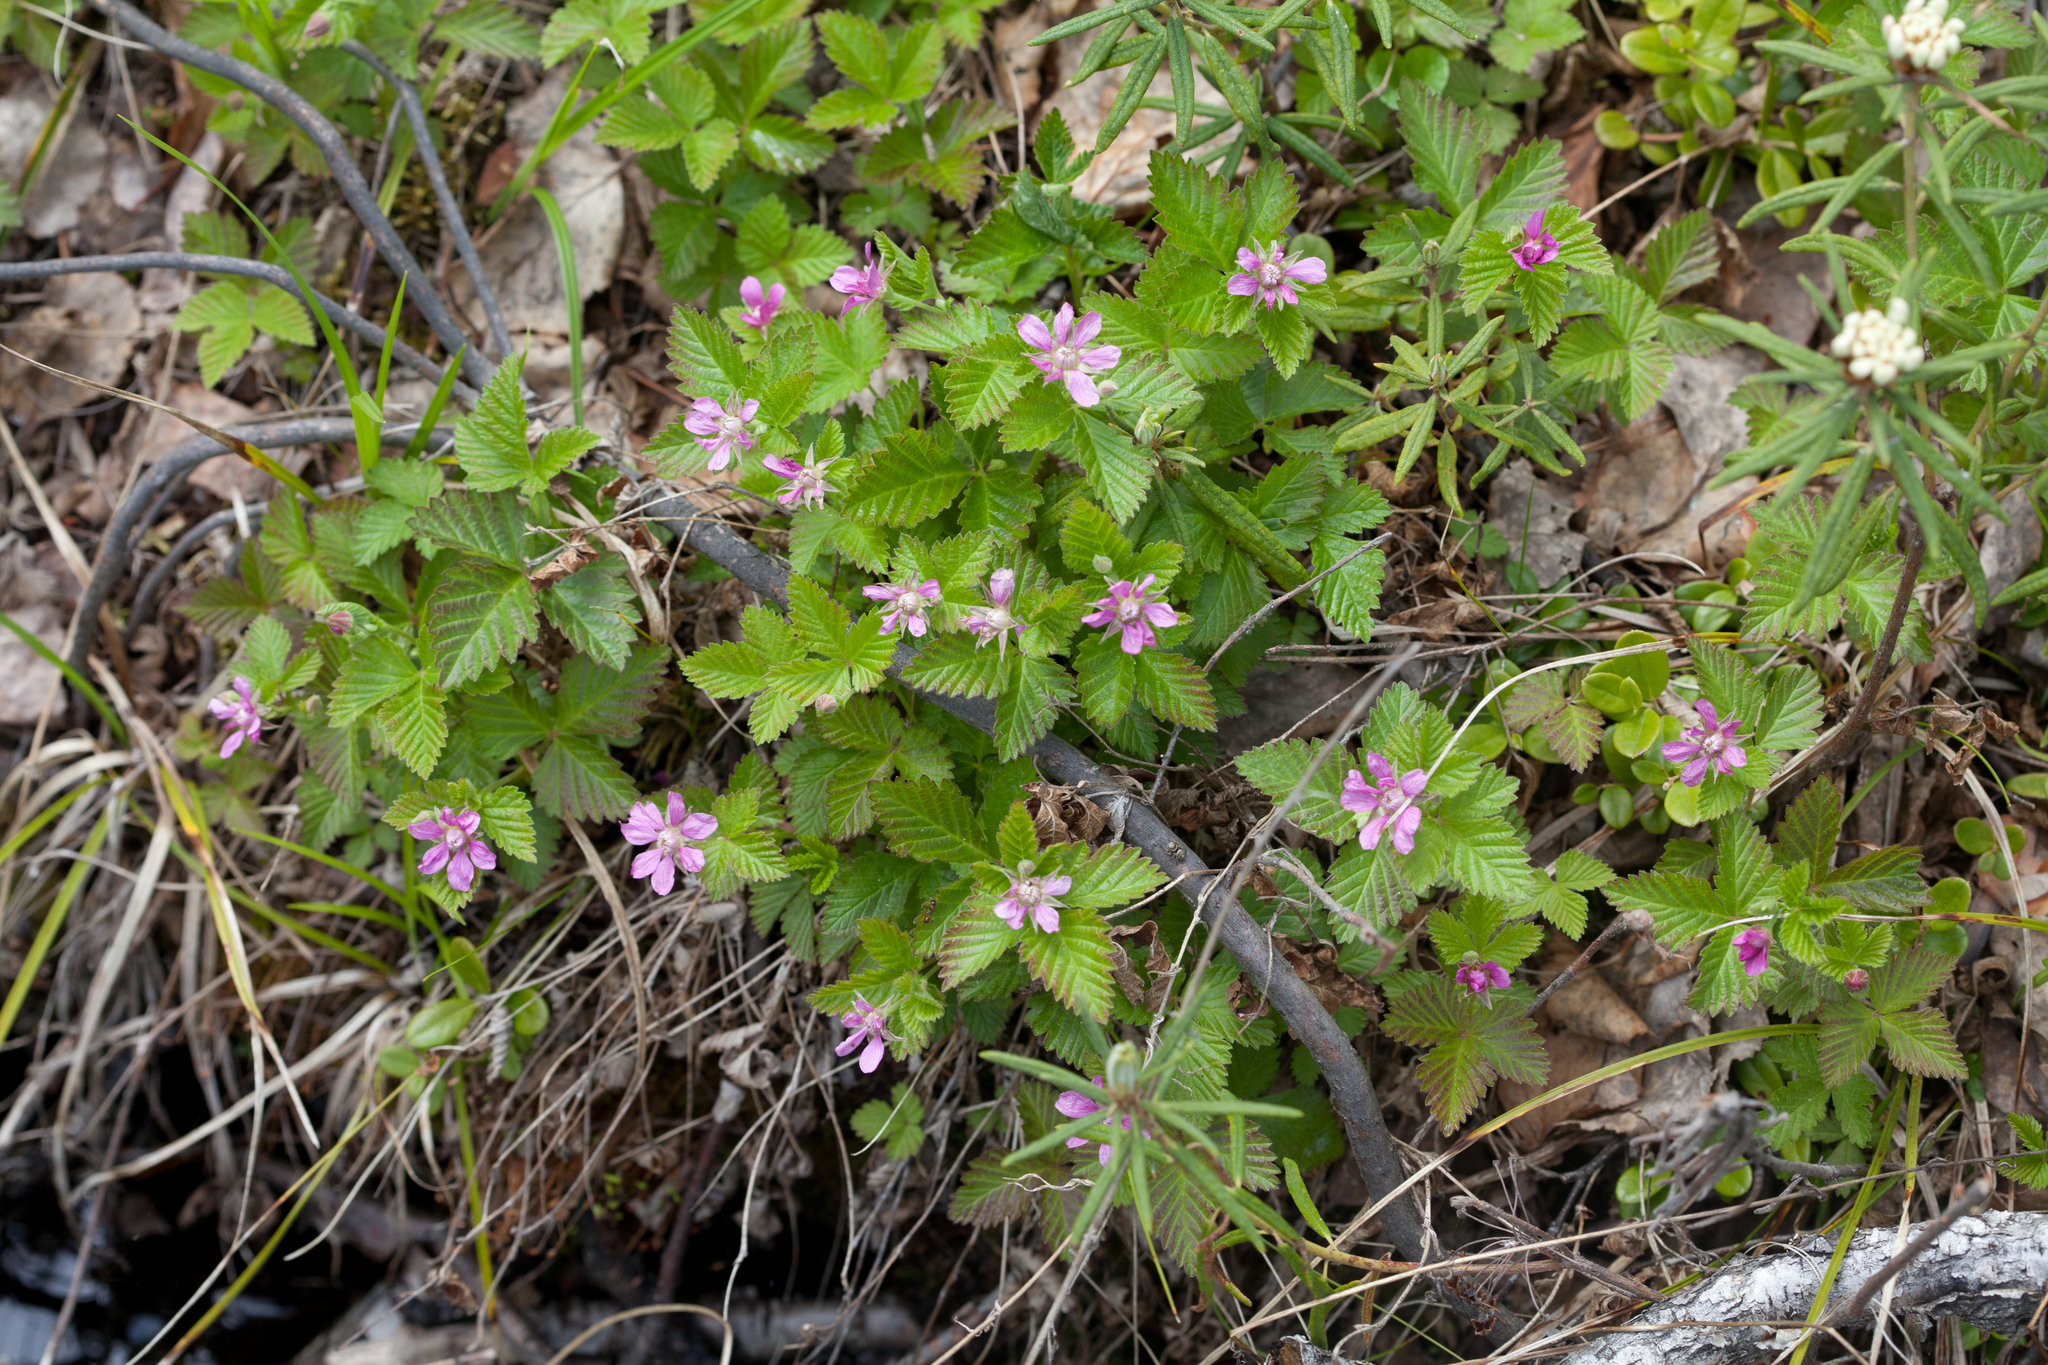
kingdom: Plantae
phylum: Tracheophyta
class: Magnoliopsida
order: Rosales
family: Rosaceae
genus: Rubus
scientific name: Rubus arcticus
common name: Arctic bramble
